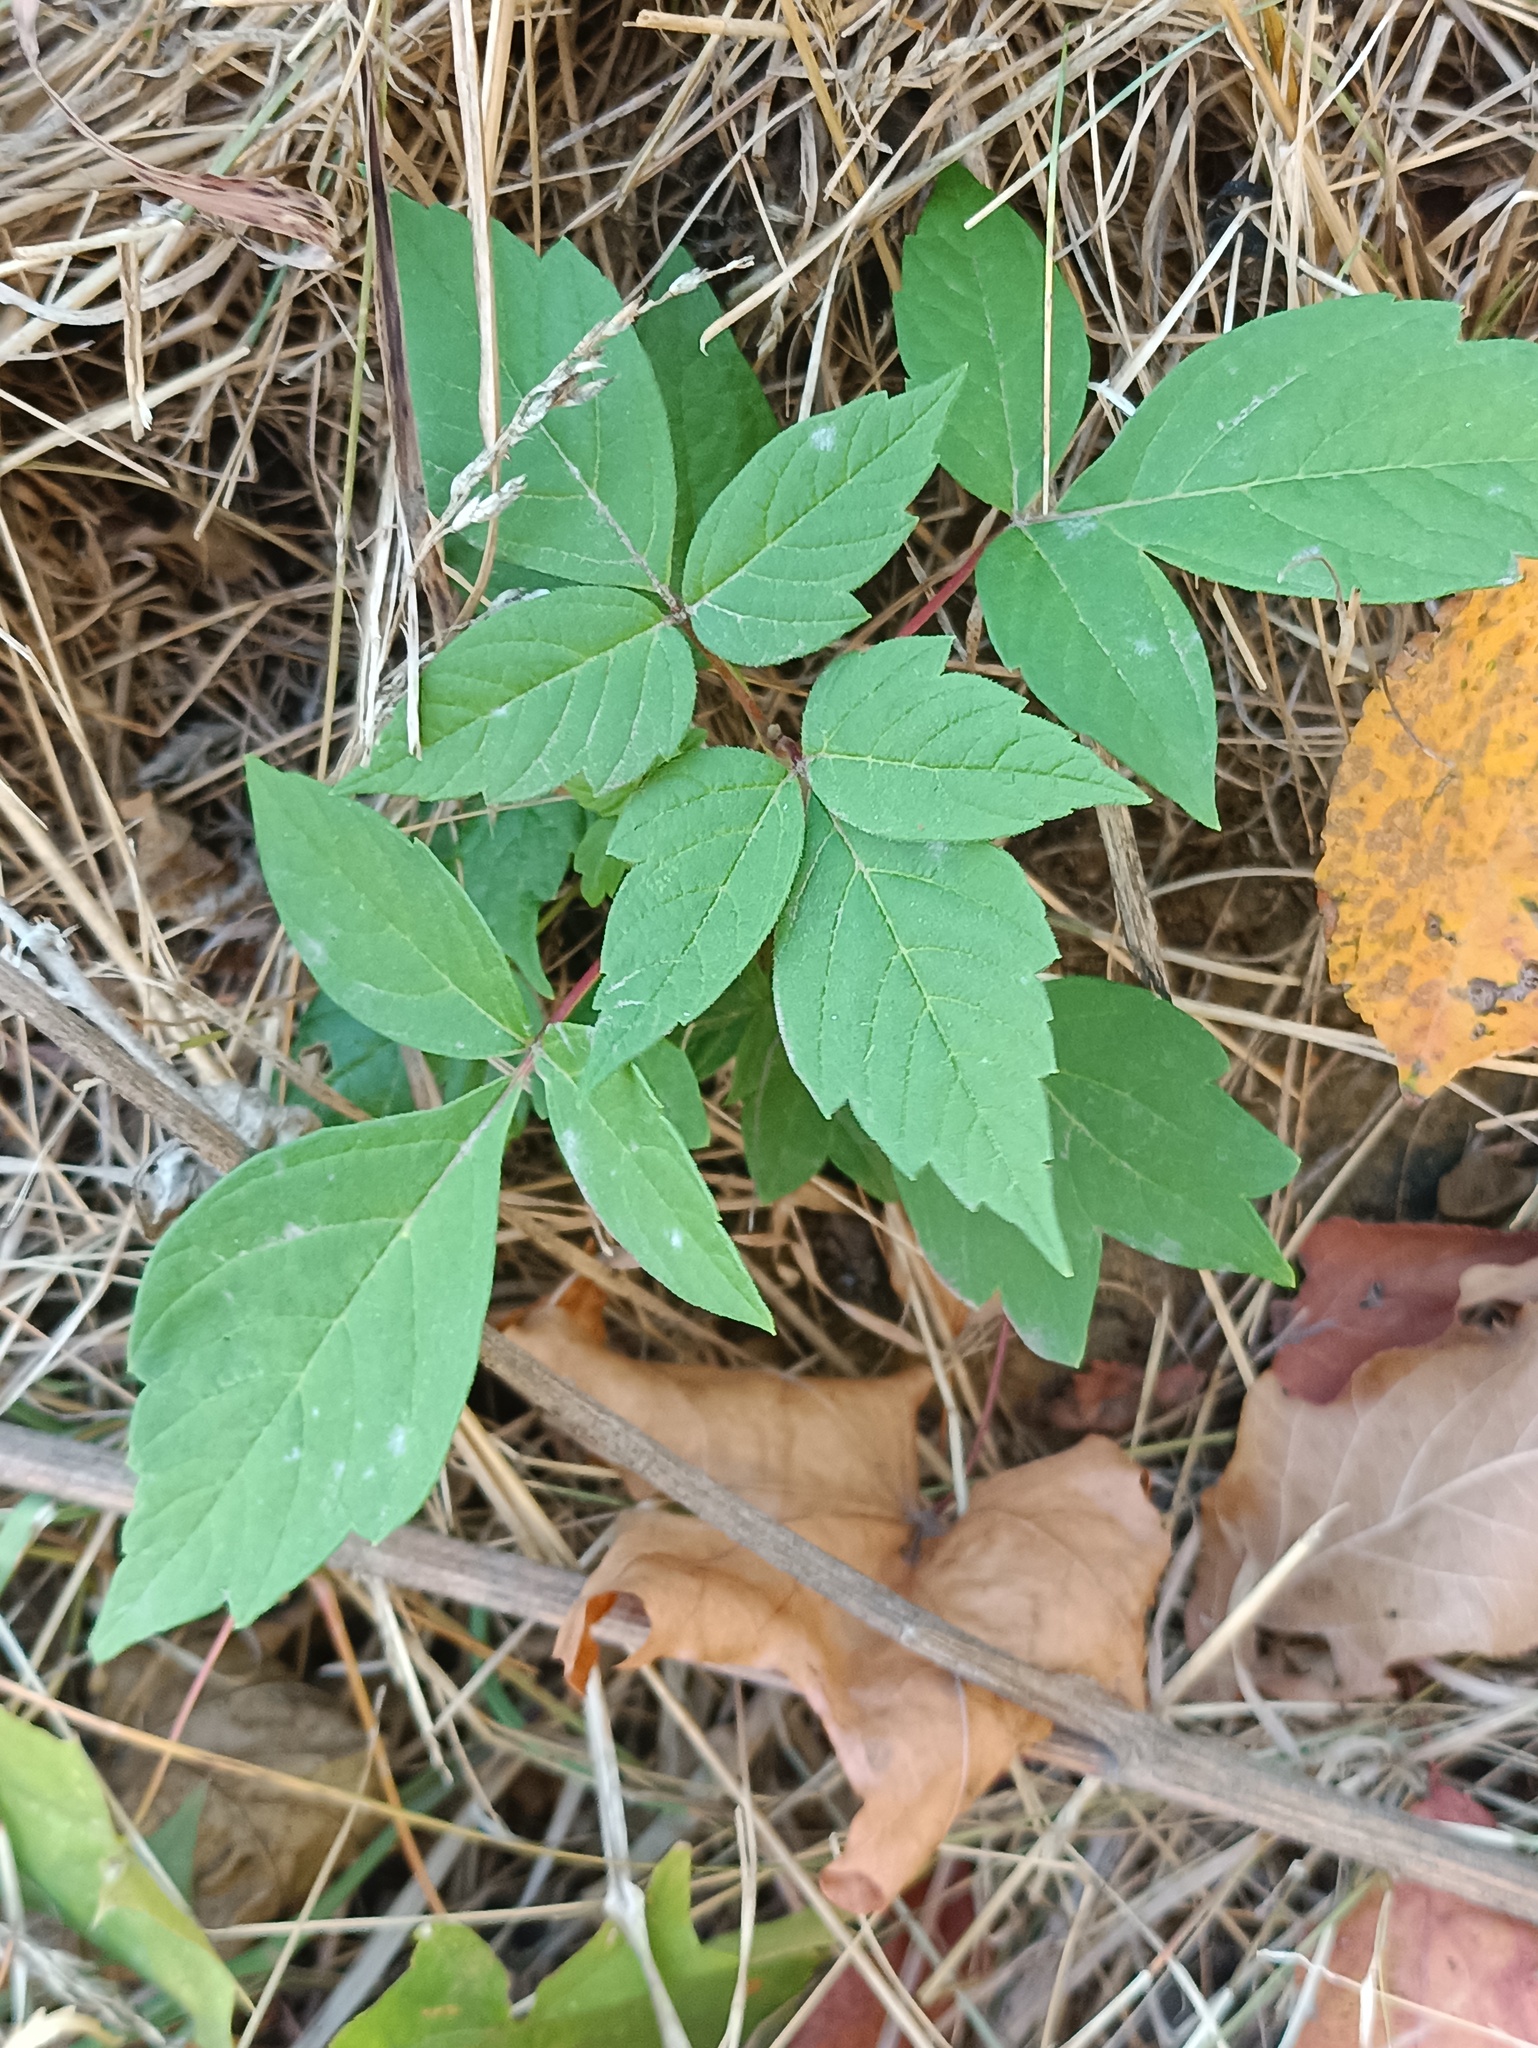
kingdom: Plantae
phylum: Tracheophyta
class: Magnoliopsida
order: Sapindales
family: Sapindaceae
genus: Acer
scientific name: Acer negundo
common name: Ashleaf maple
